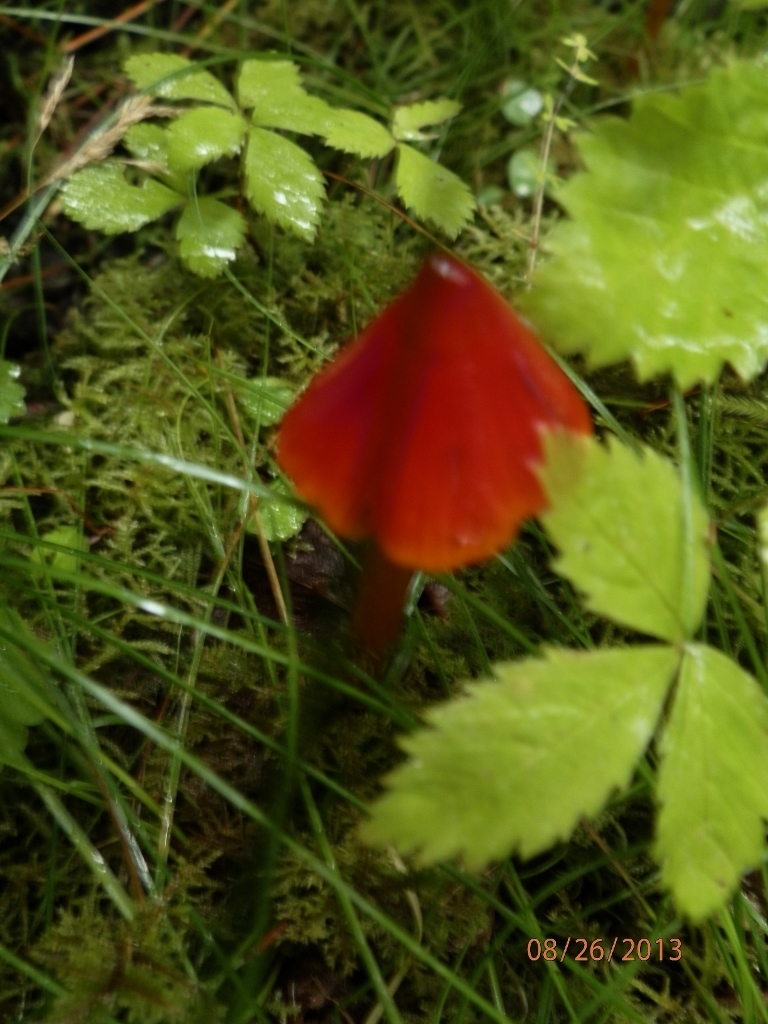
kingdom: Fungi
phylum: Basidiomycota
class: Agaricomycetes
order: Agaricales
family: Hygrophoraceae
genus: Hygrocybe
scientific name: Hygrocybe singeri
